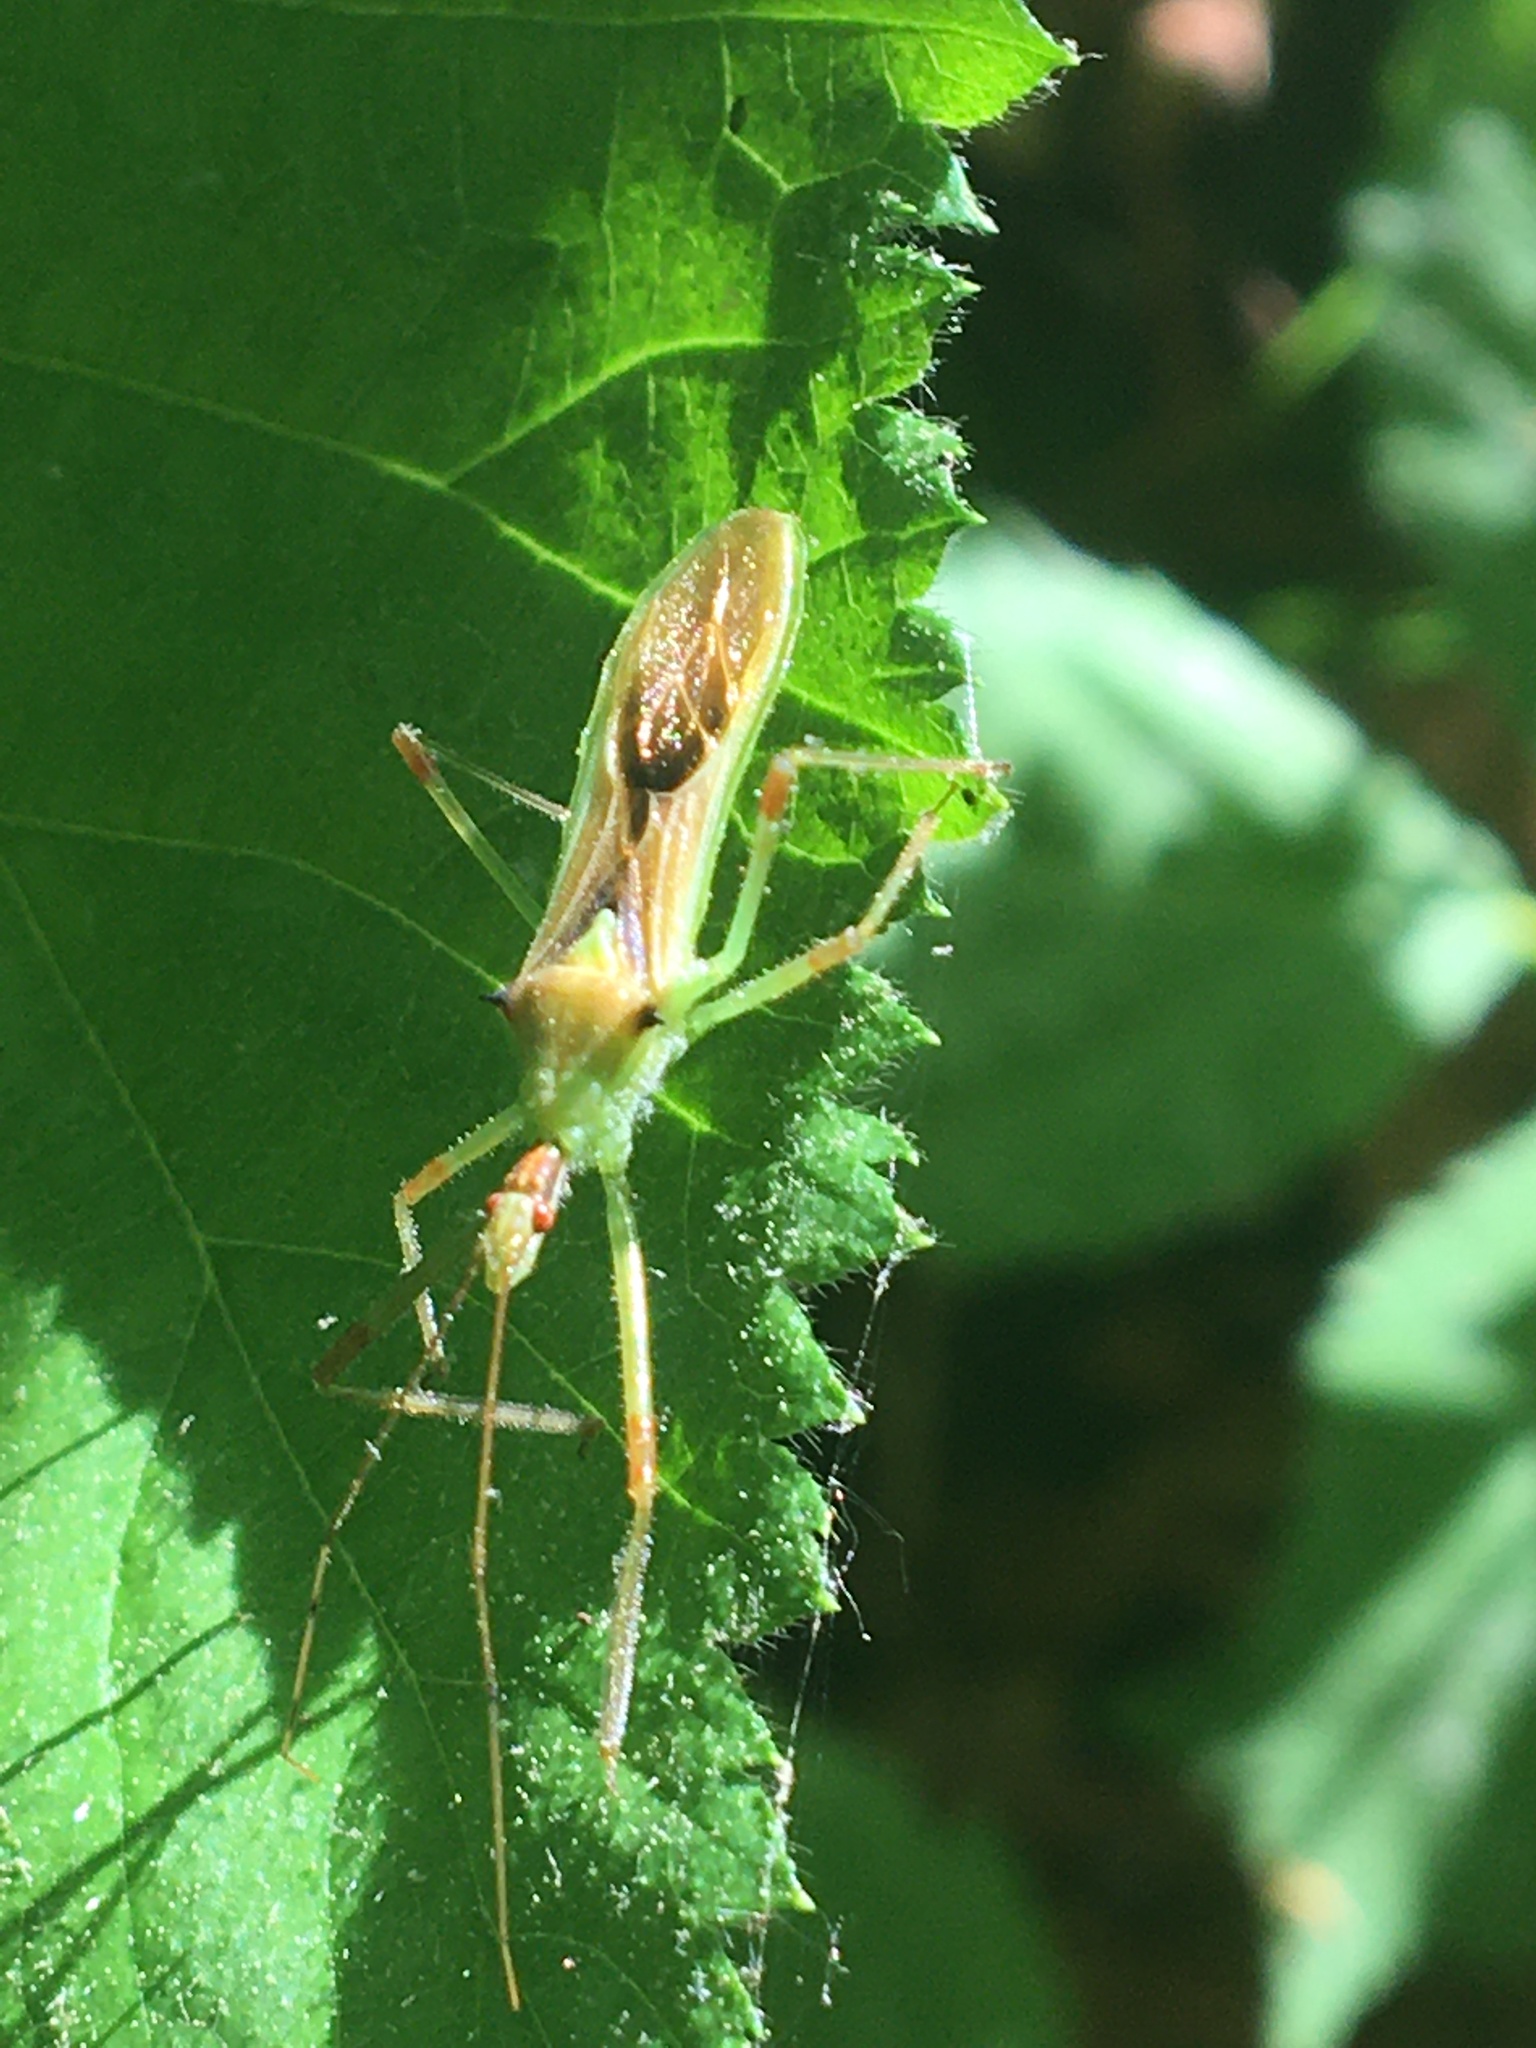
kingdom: Animalia
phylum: Arthropoda
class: Insecta
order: Hemiptera
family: Reduviidae
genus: Zelus
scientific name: Zelus luridus
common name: Pale green assassin bug
